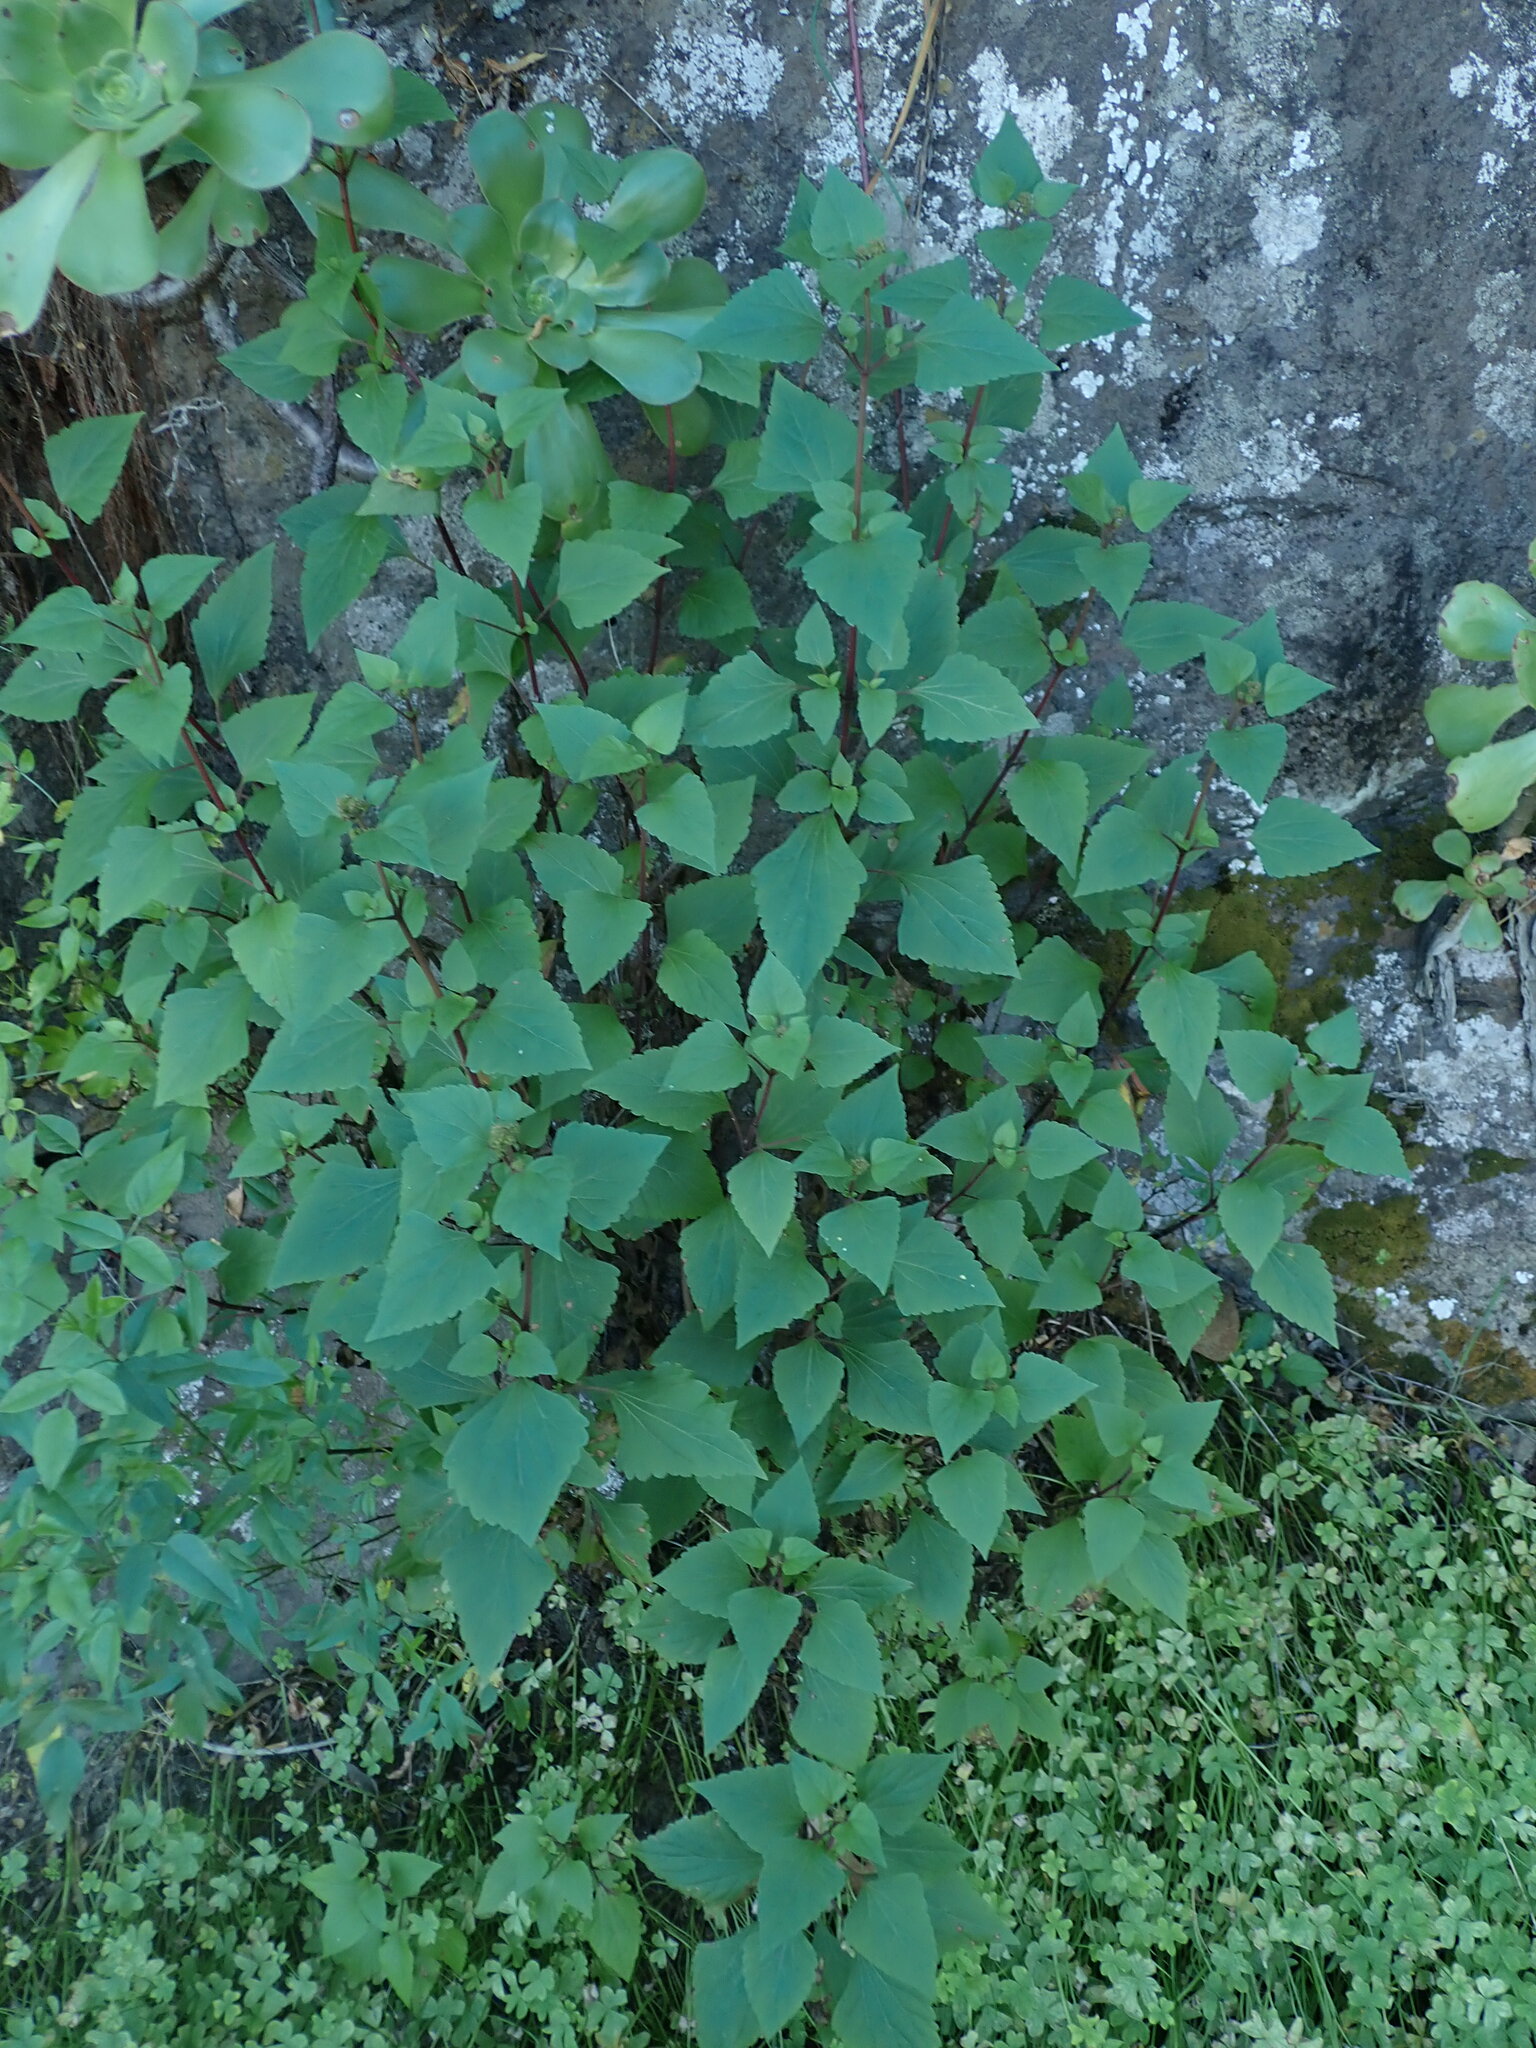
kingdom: Plantae
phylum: Tracheophyta
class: Magnoliopsida
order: Asterales
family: Asteraceae
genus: Ageratina
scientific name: Ageratina adenophora
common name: Sticky snakeroot
